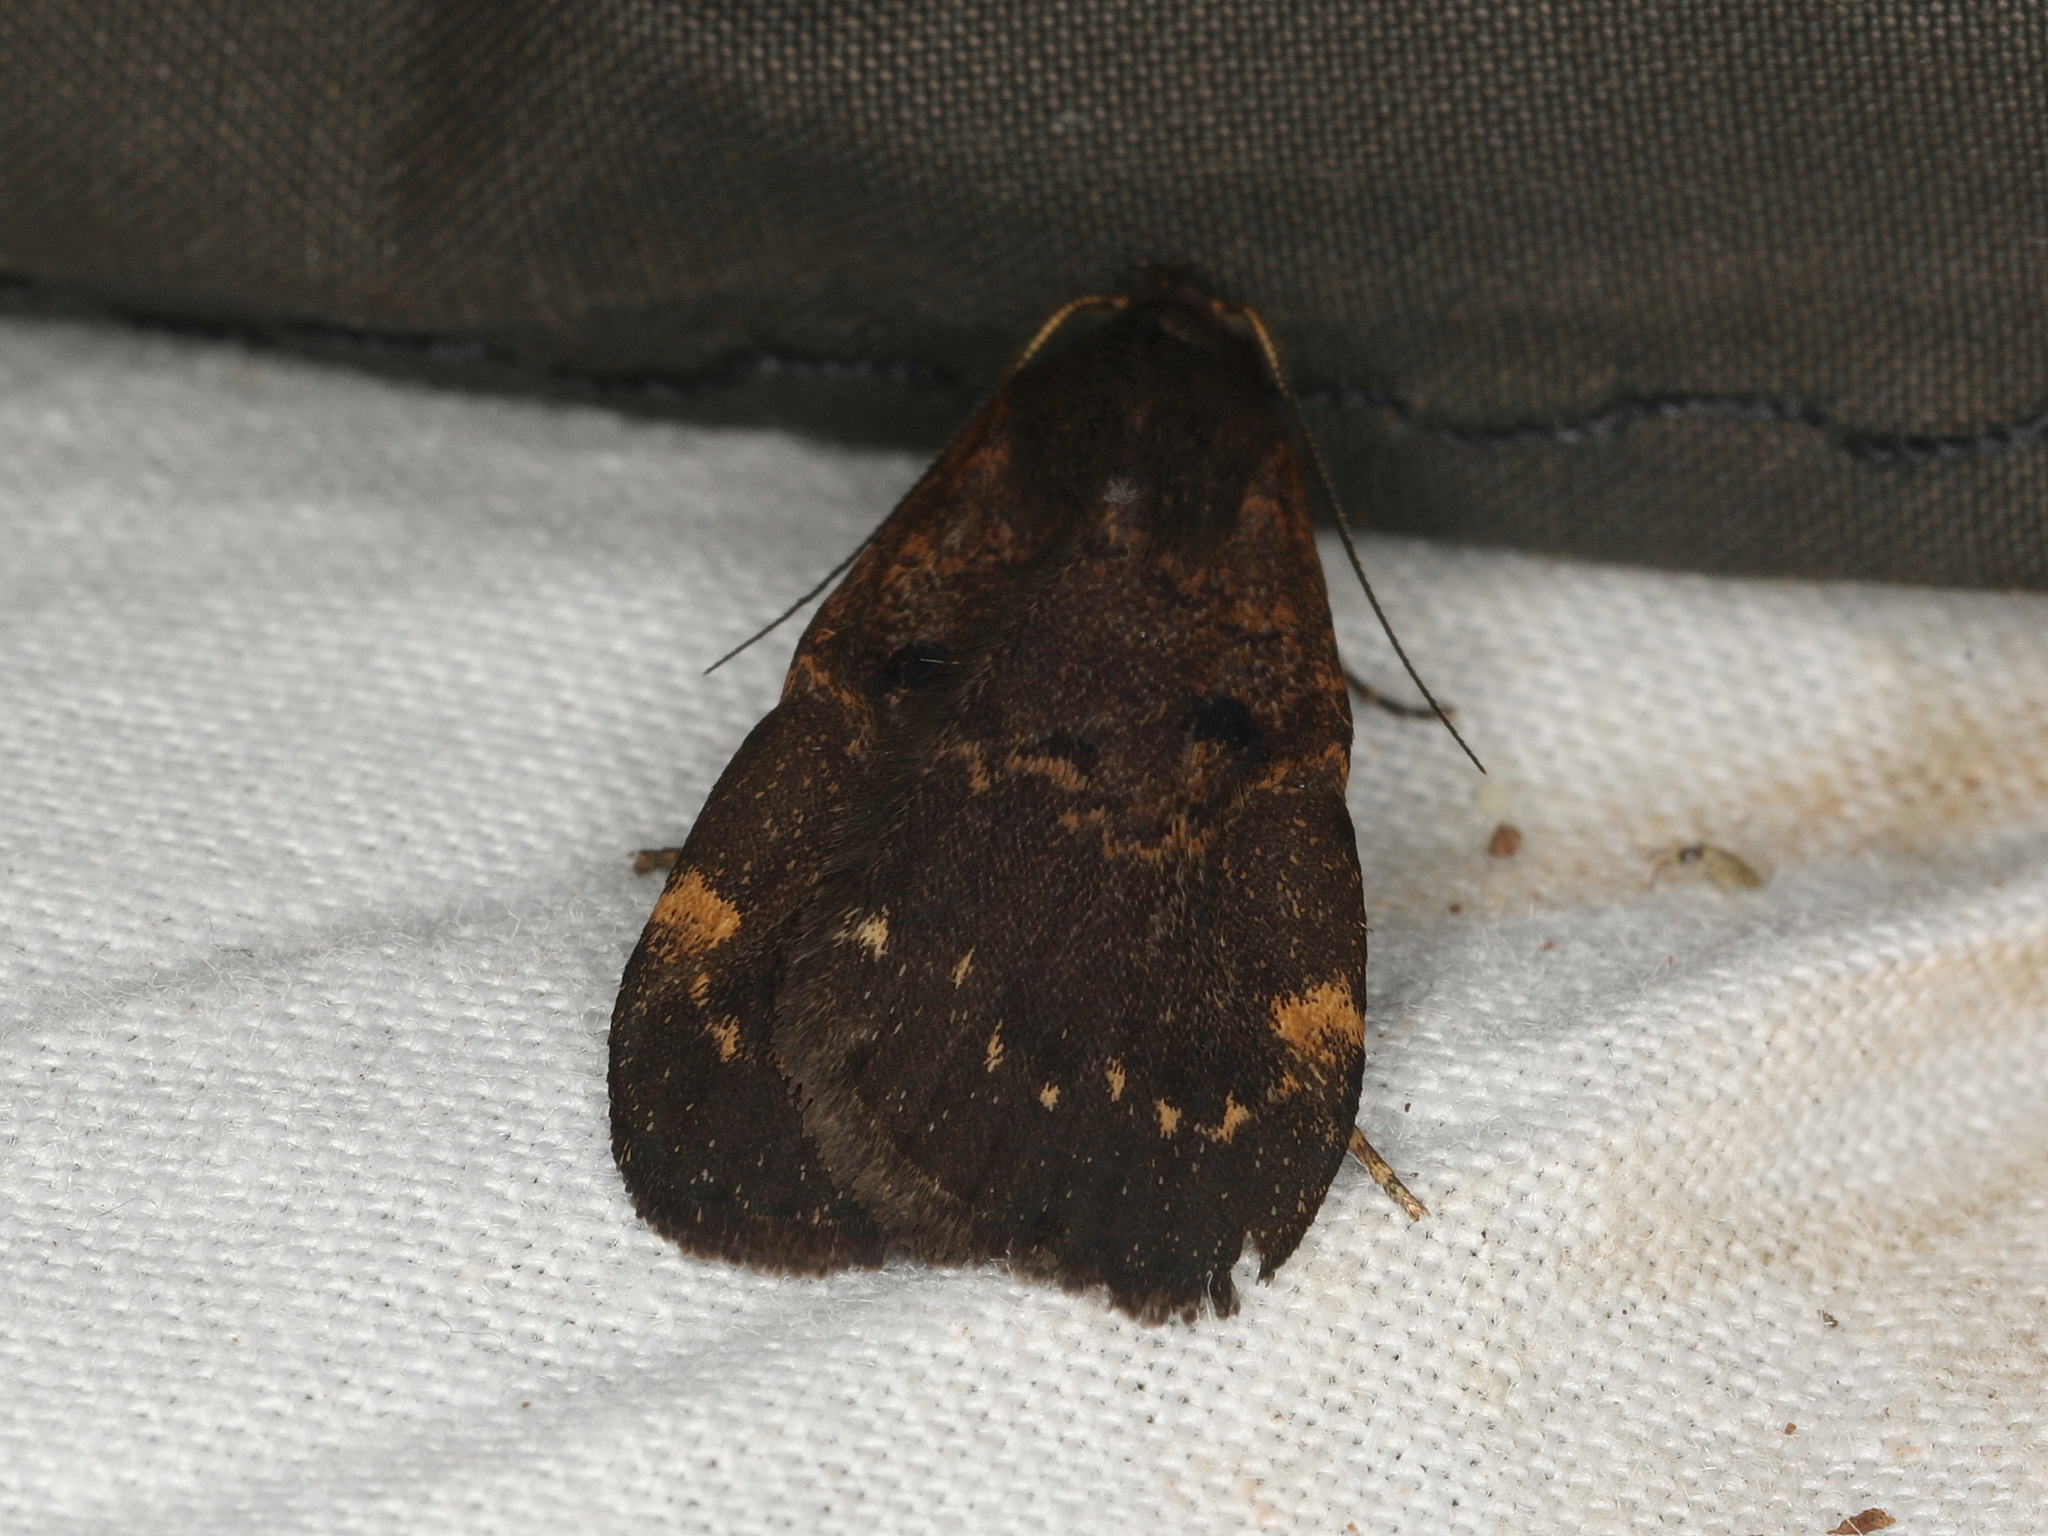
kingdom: Animalia
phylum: Arthropoda
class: Insecta
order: Lepidoptera
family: Erebidae
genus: Hydrillodes
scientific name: Hydrillodes funestalis
